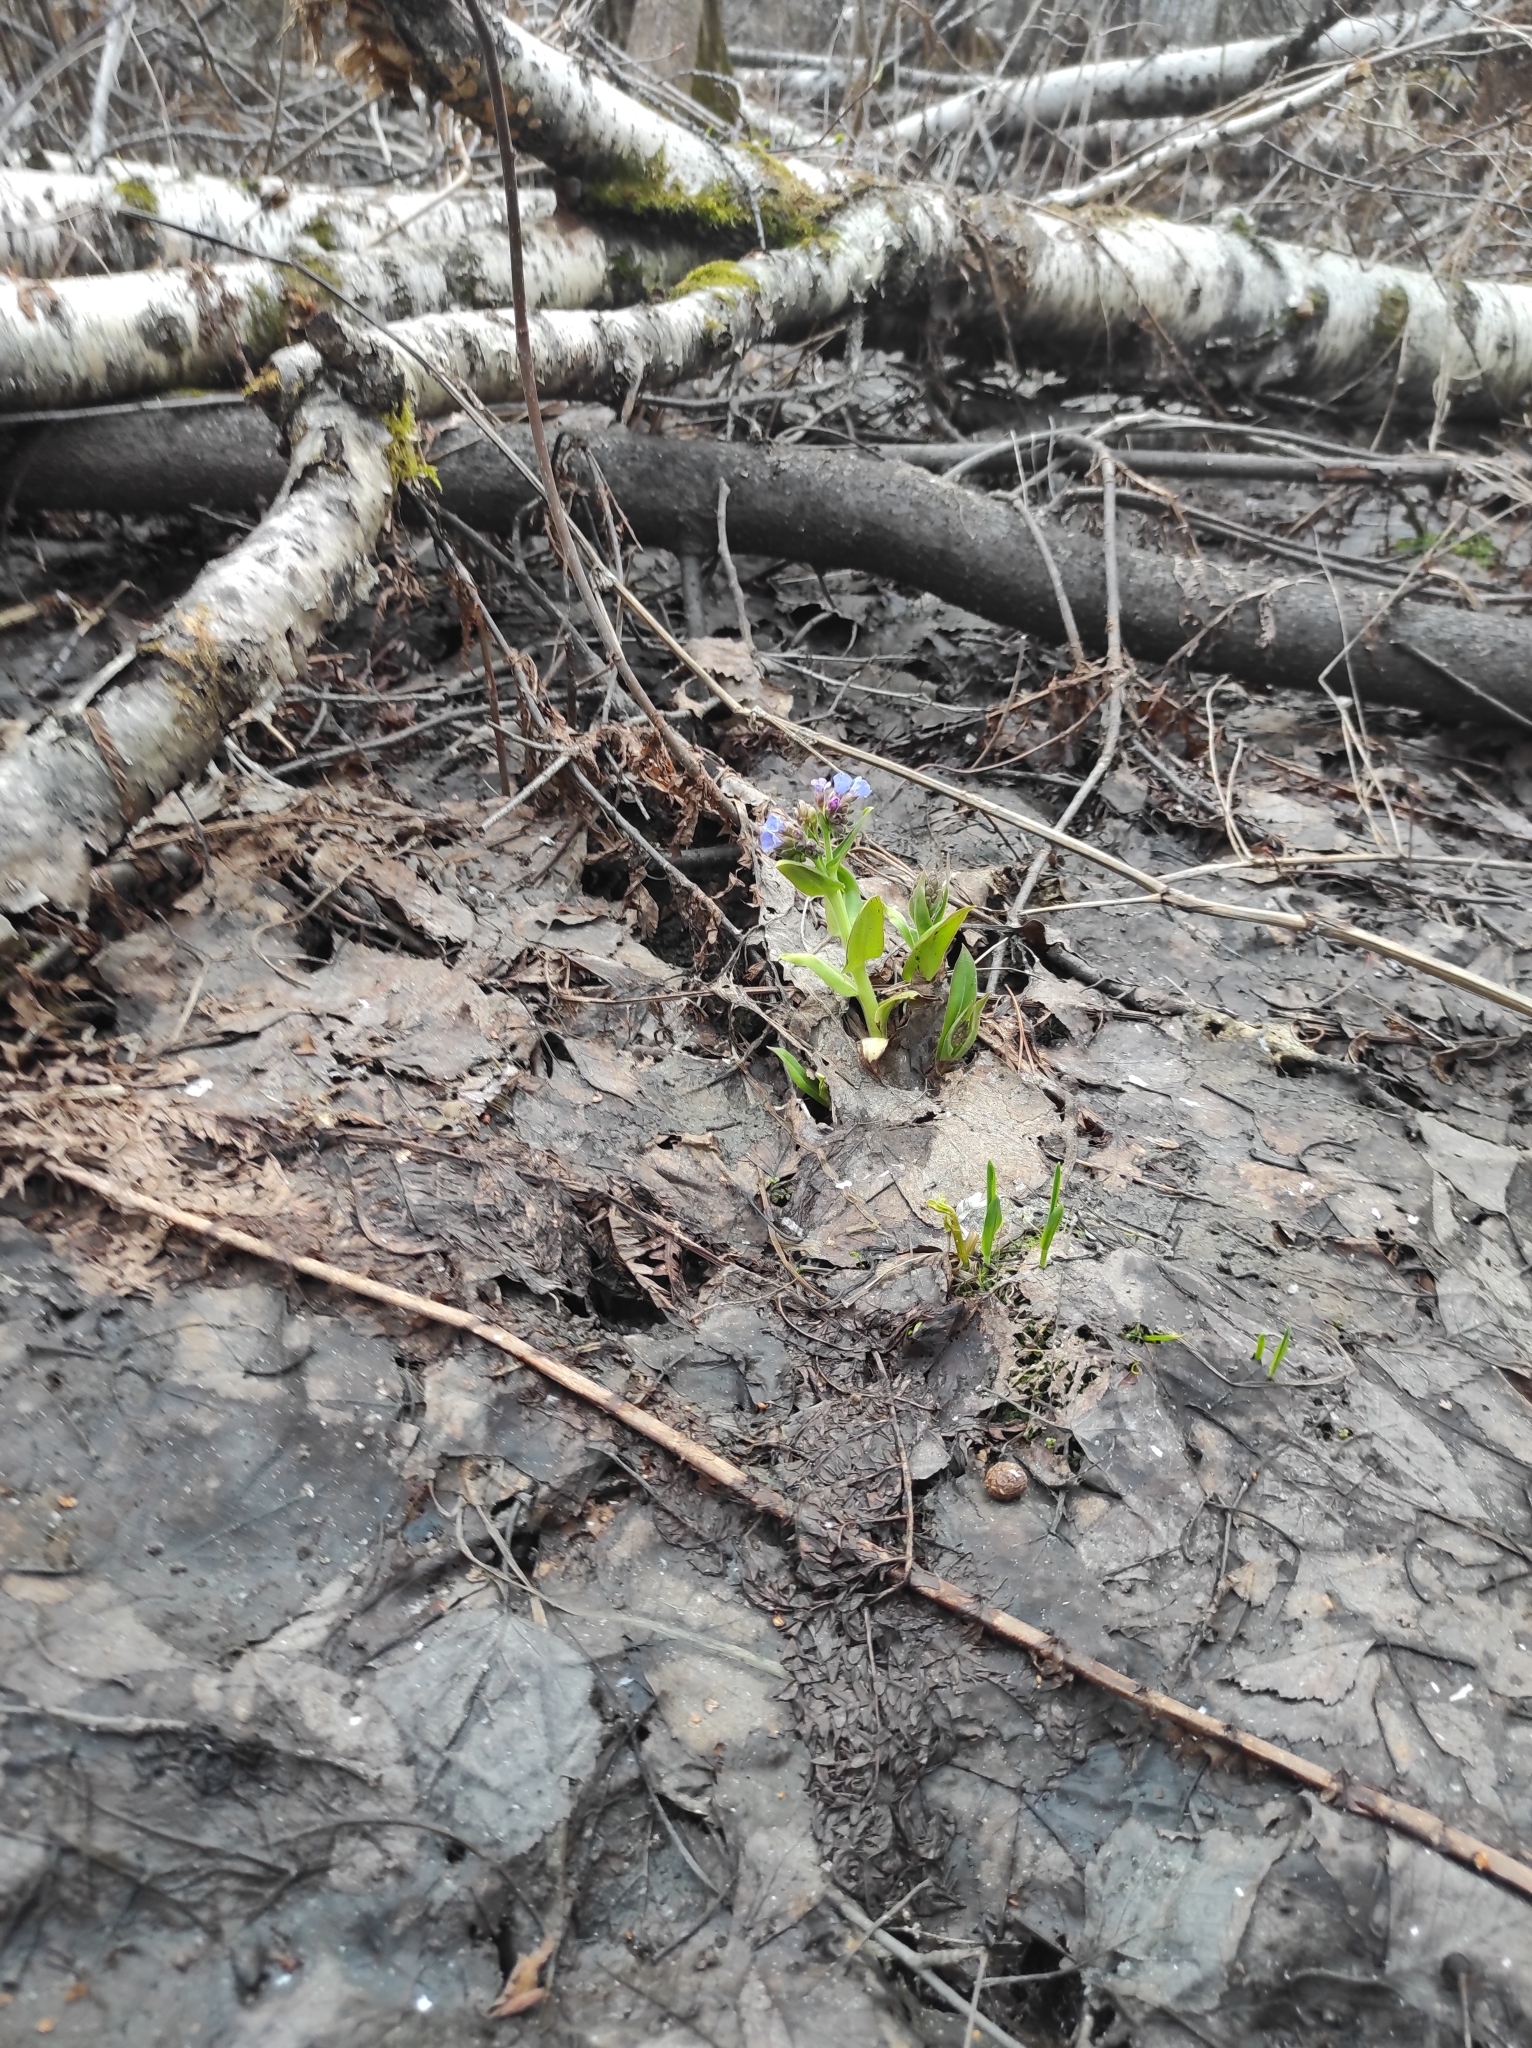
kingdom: Plantae
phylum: Tracheophyta
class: Magnoliopsida
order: Boraginales
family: Boraginaceae
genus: Pulmonaria
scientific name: Pulmonaria mollis
